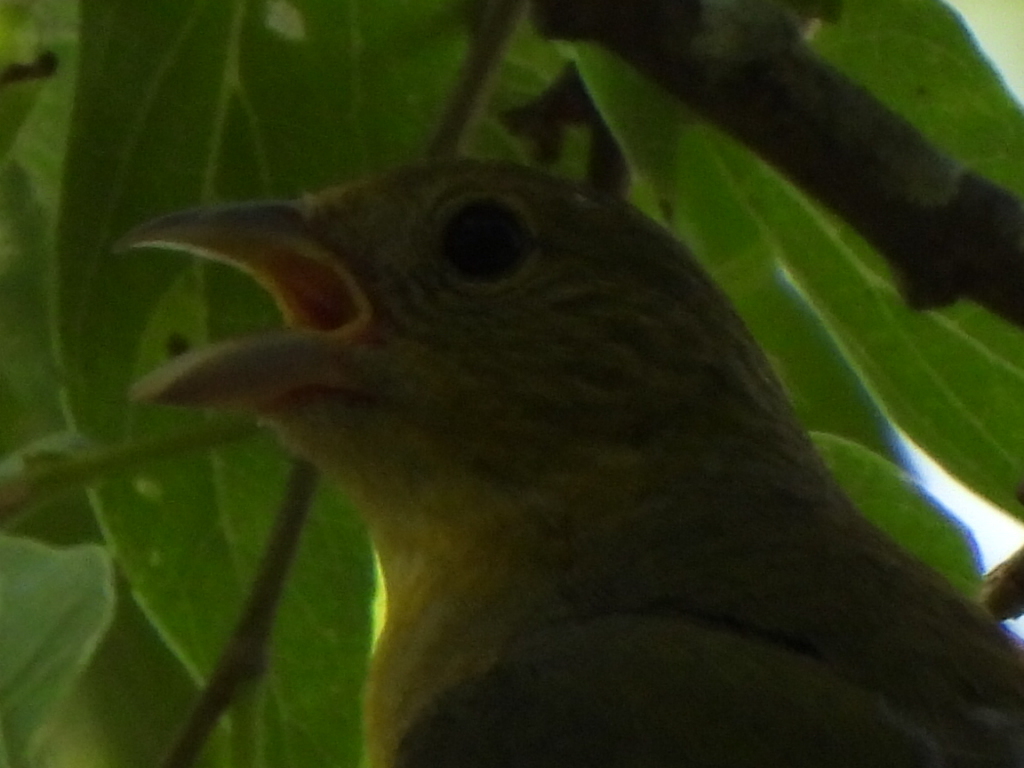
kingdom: Animalia
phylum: Chordata
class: Aves
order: Passeriformes
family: Cardinalidae
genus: Passerina
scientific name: Passerina ciris
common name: Painted bunting
